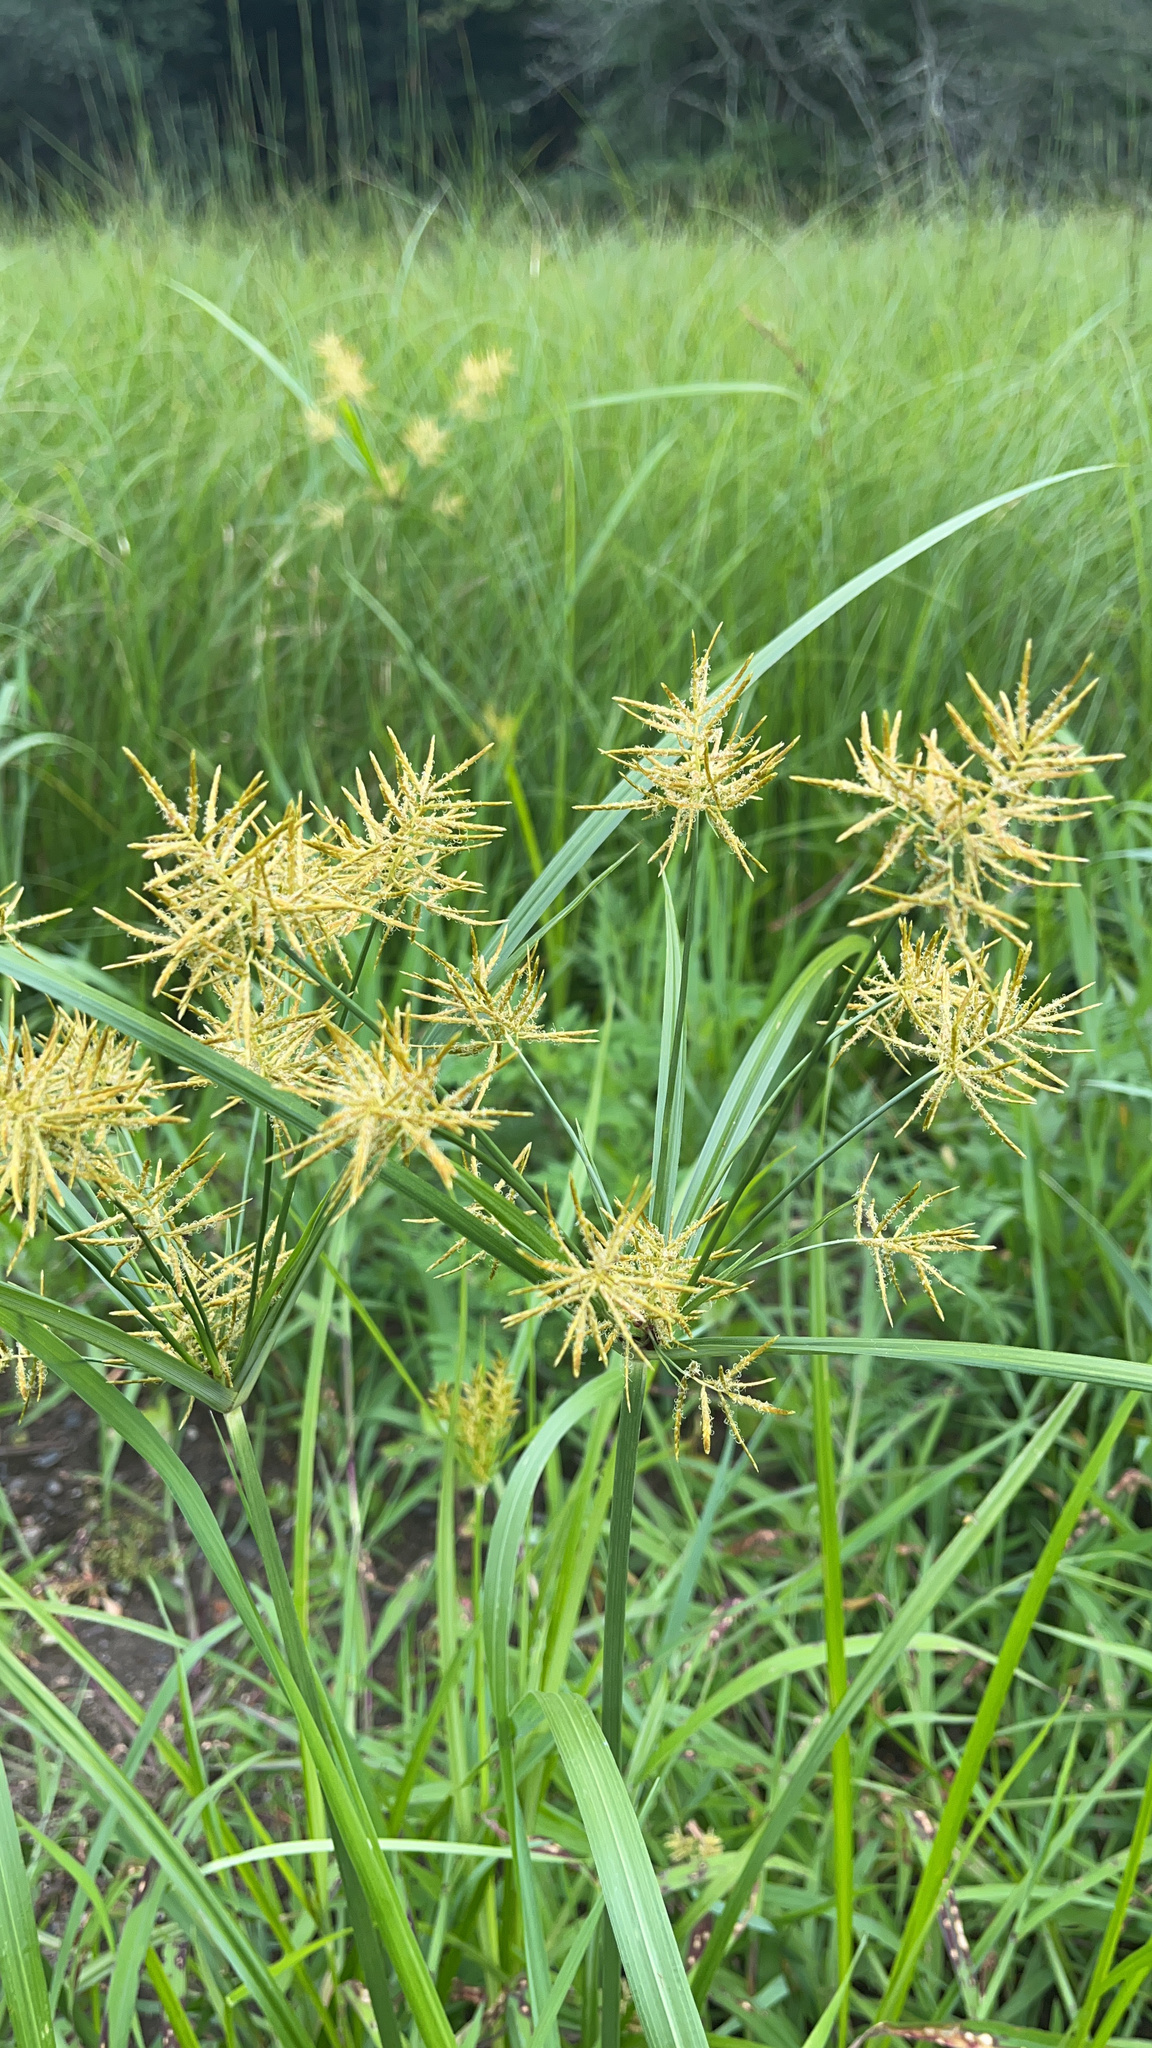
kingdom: Plantae
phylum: Tracheophyta
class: Liliopsida
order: Poales
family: Cyperaceae
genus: Cyperus
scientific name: Cyperus esculentus
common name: Yellow nutsedge
